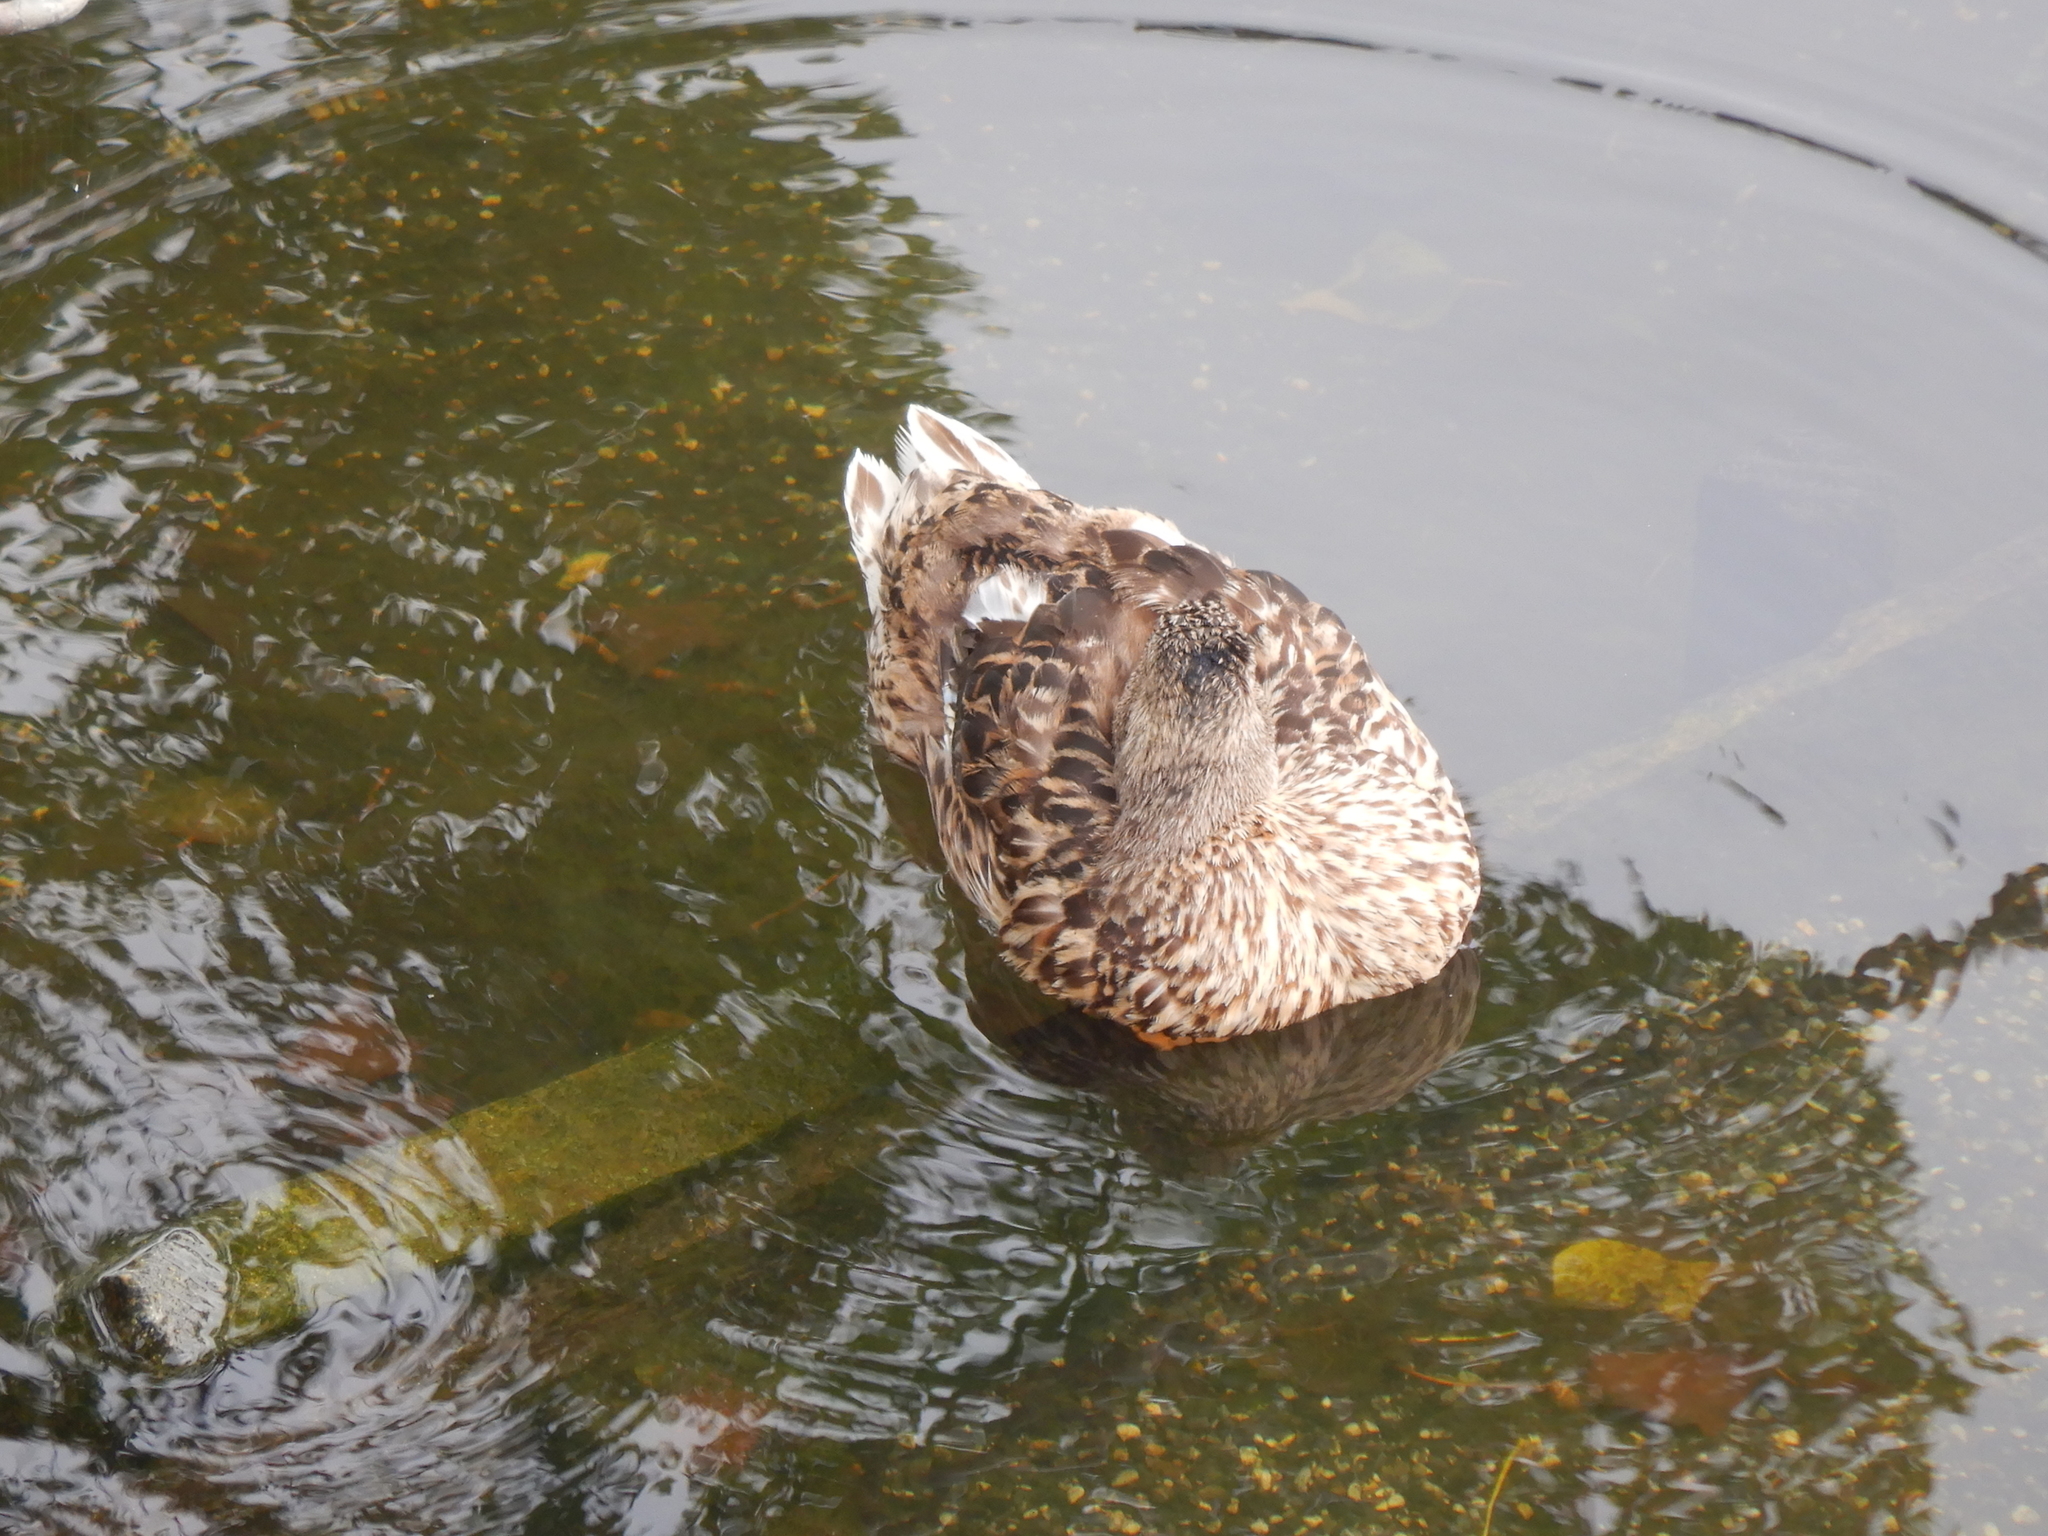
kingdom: Animalia
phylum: Chordata
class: Aves
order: Anseriformes
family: Anatidae
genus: Anas
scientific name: Anas platyrhynchos
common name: Mallard
